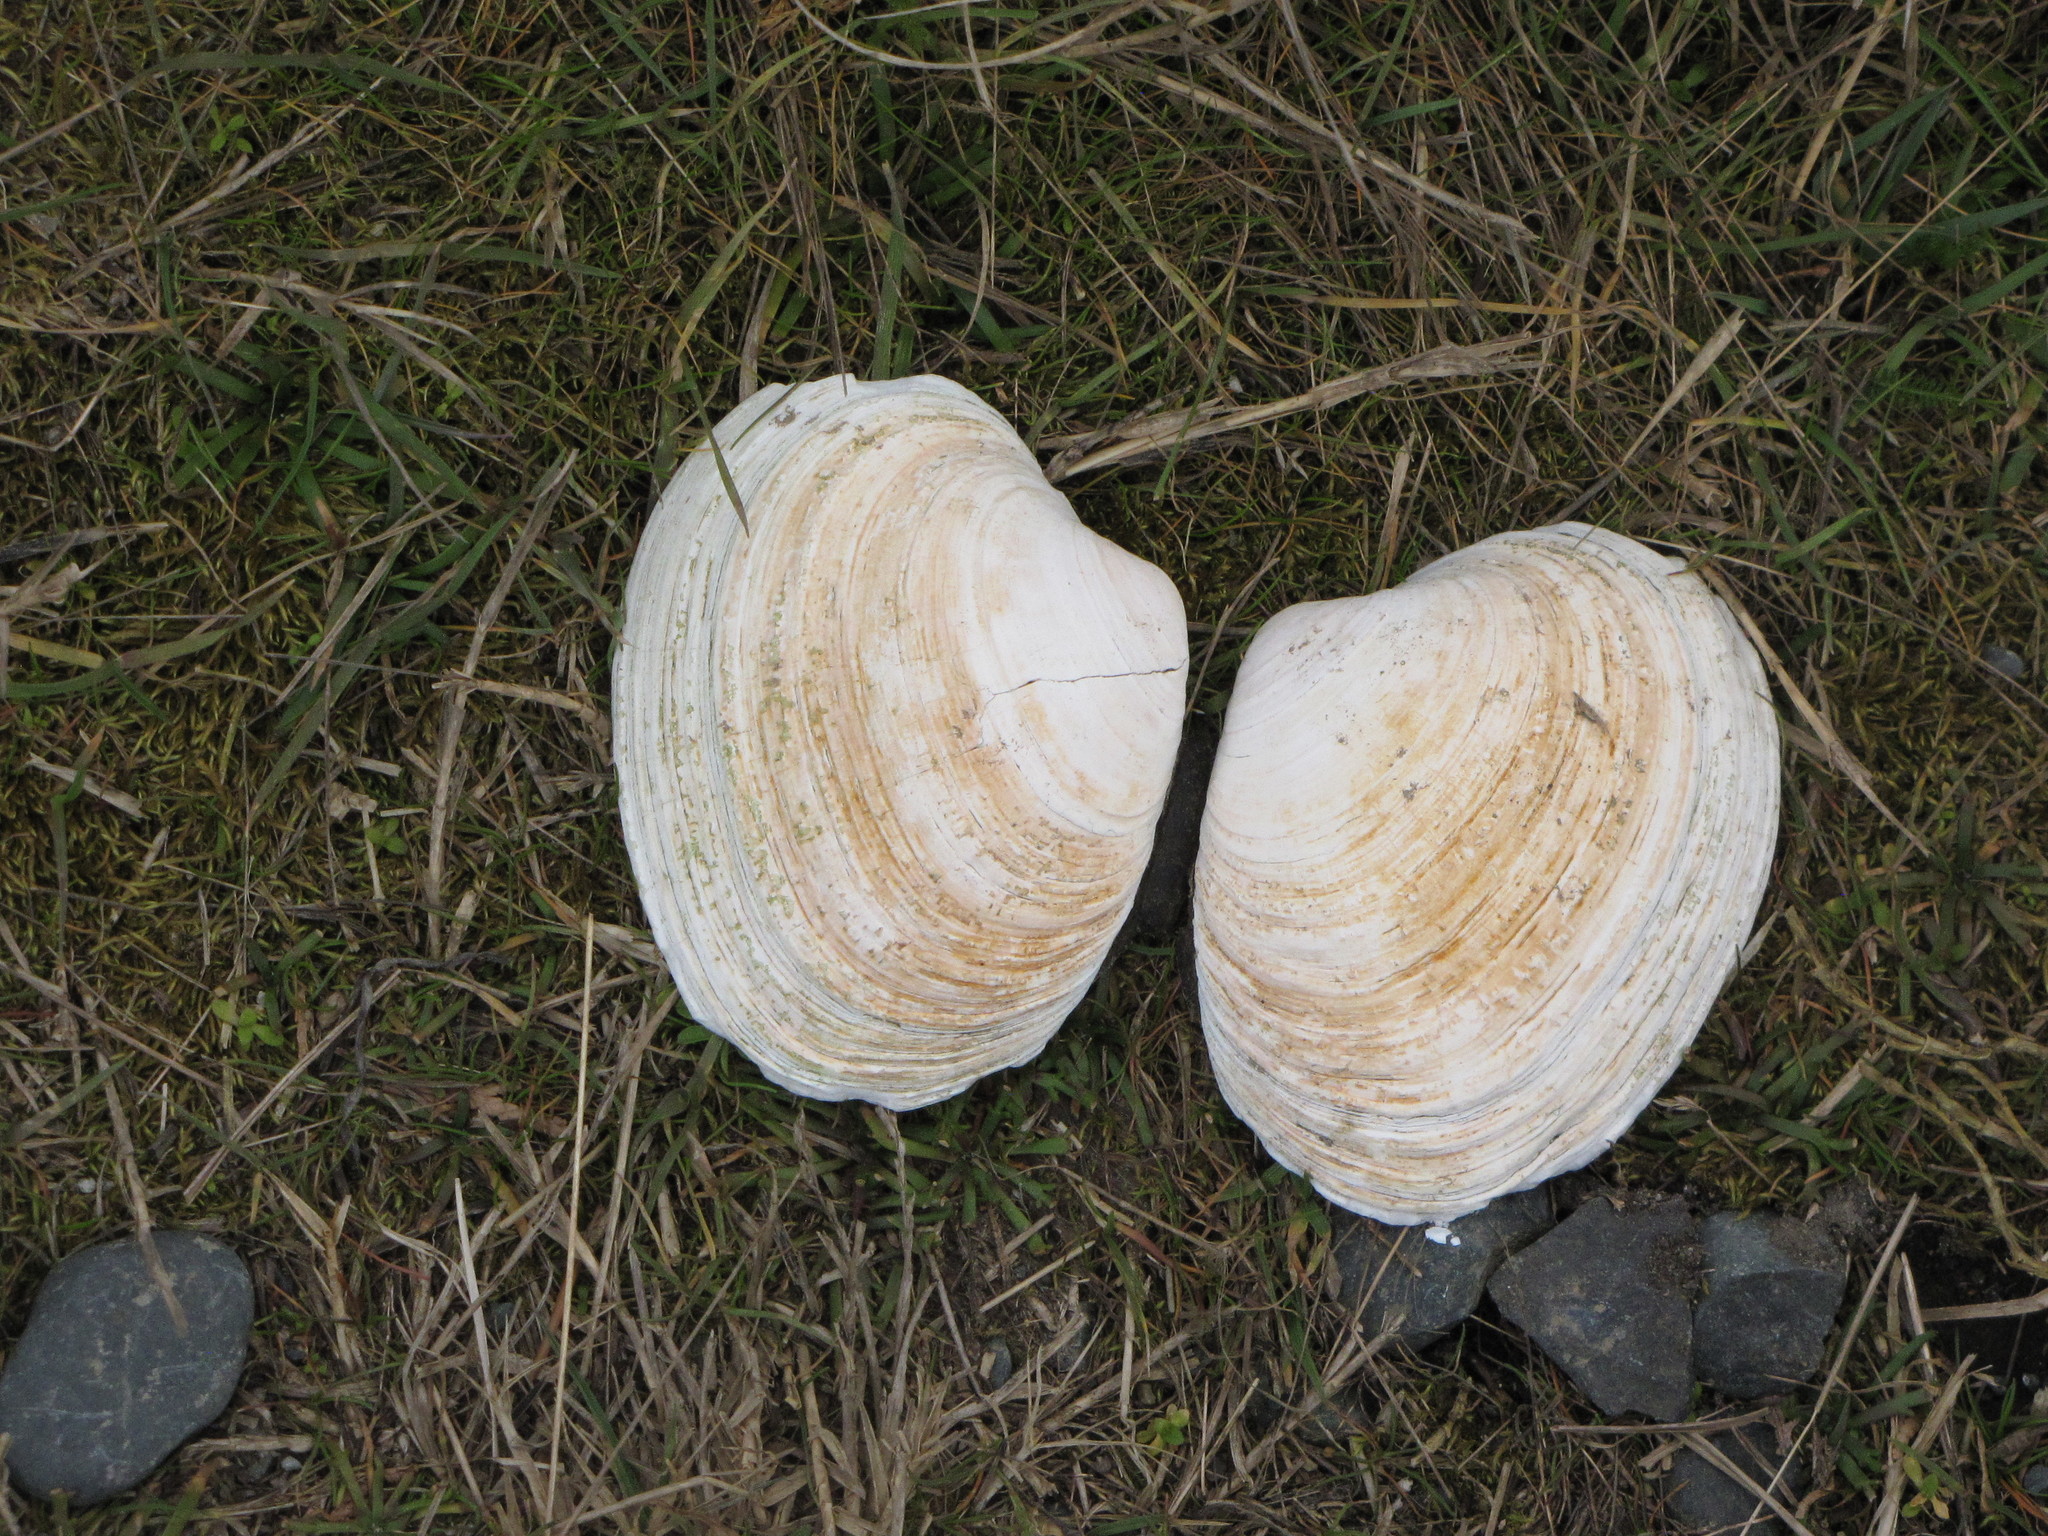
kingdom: Animalia
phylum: Mollusca
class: Bivalvia
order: Venerida
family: Veneridae
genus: Saxidomus
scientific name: Saxidomus gigantea
